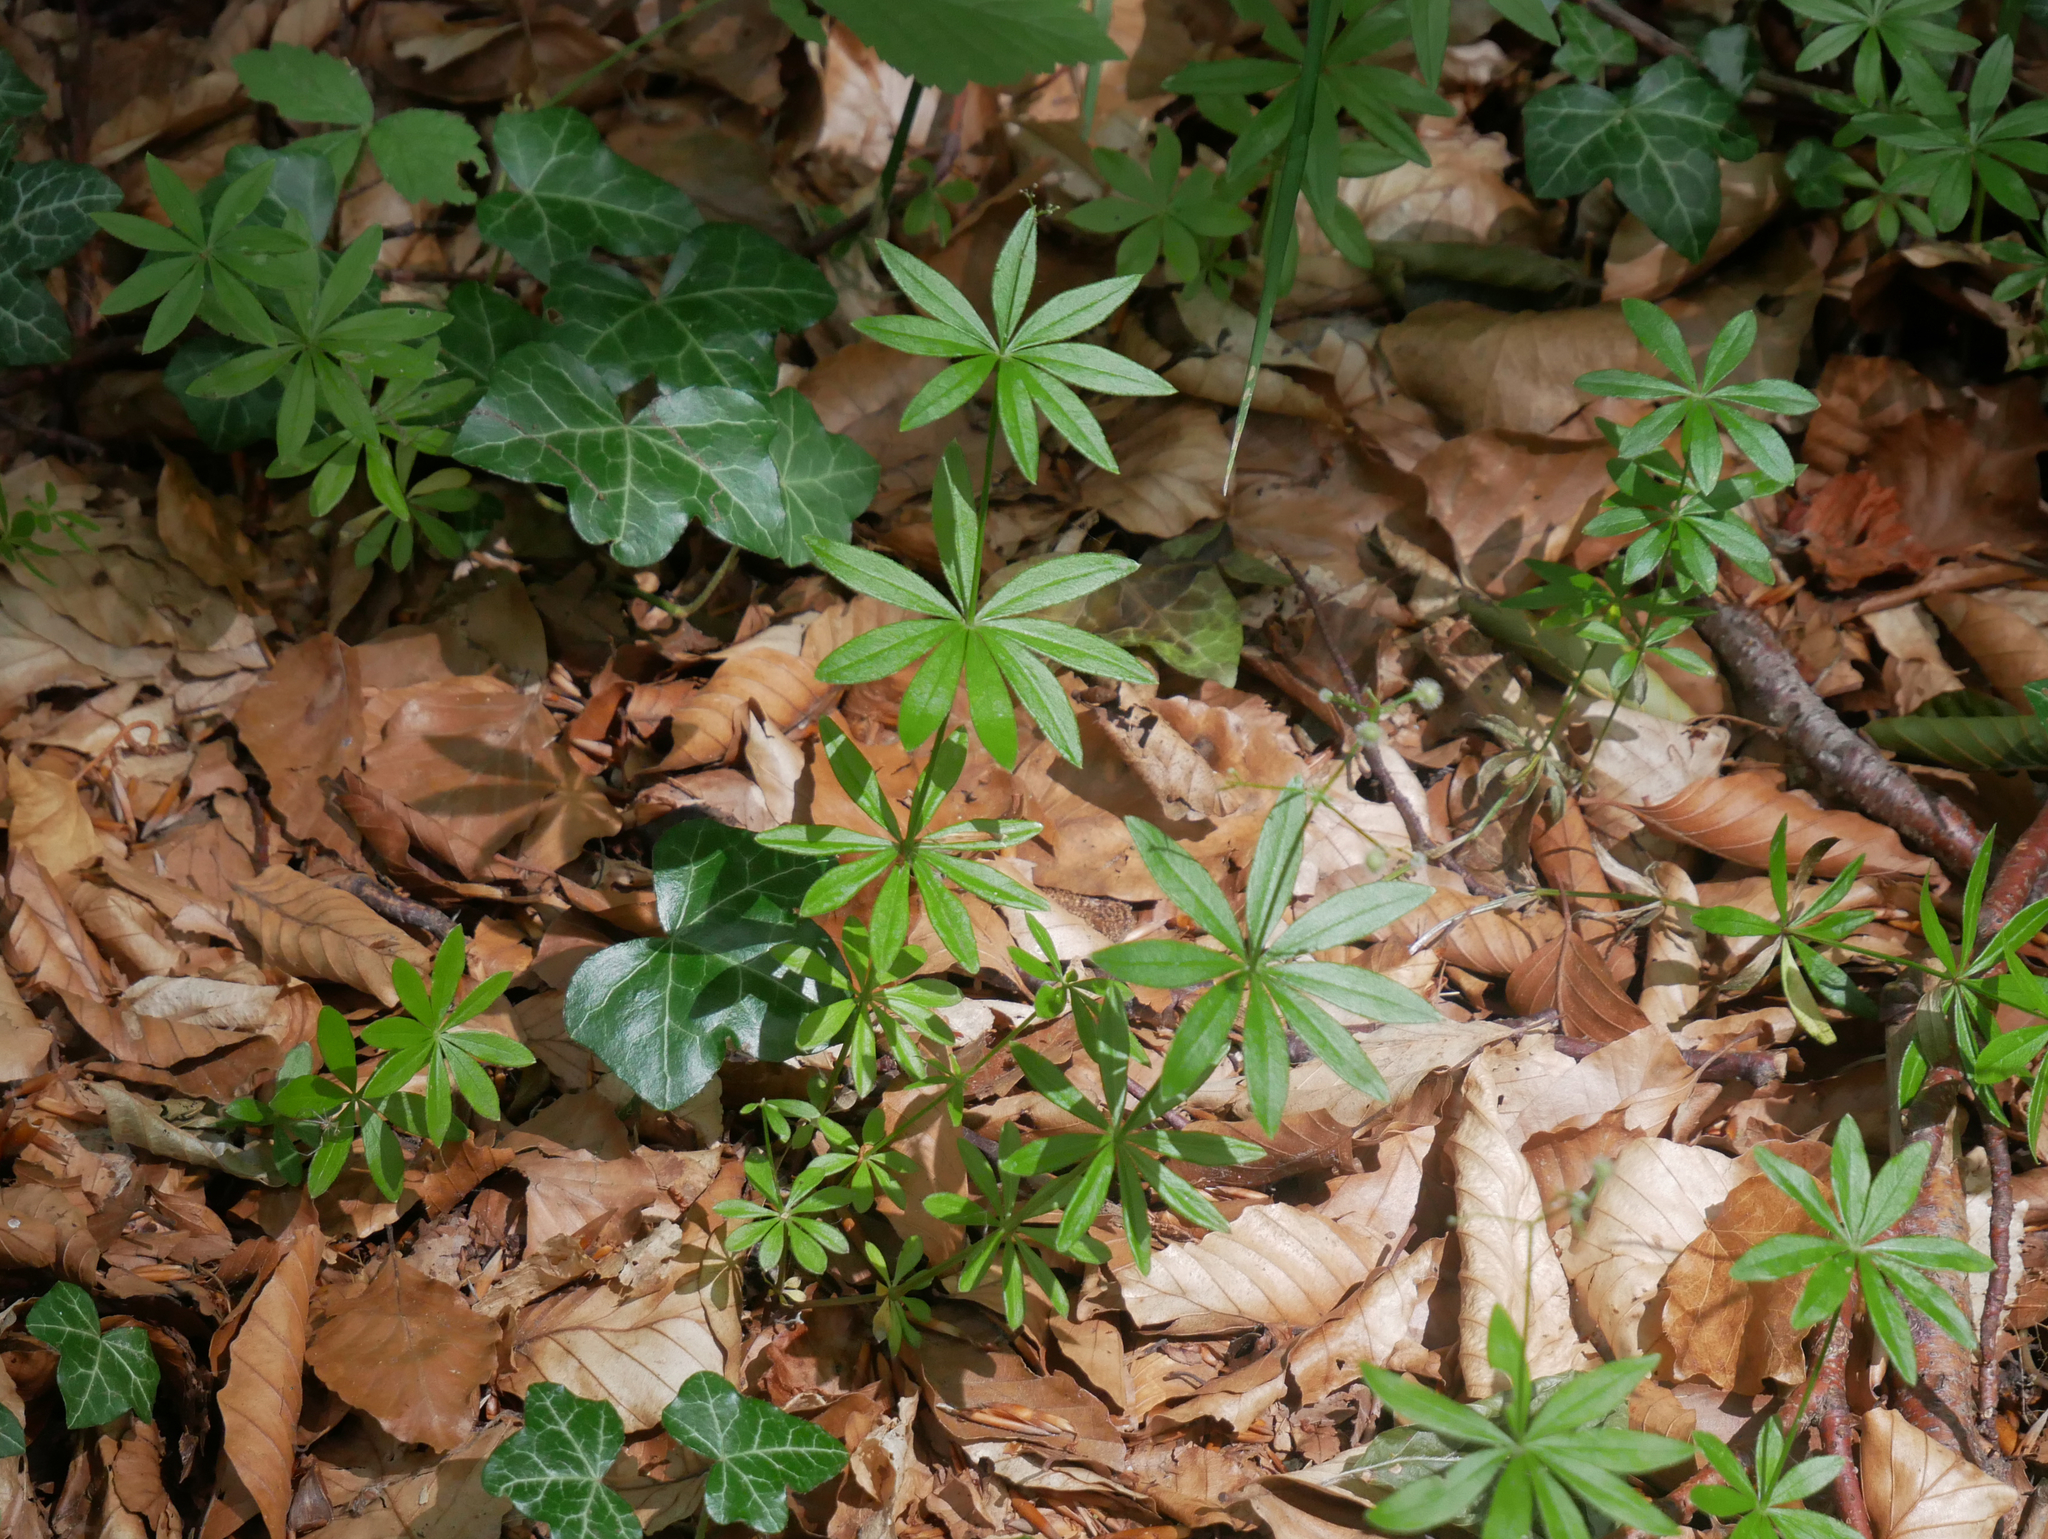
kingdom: Plantae
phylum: Tracheophyta
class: Magnoliopsida
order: Gentianales
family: Rubiaceae
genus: Galium
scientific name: Galium odoratum
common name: Sweet woodruff
